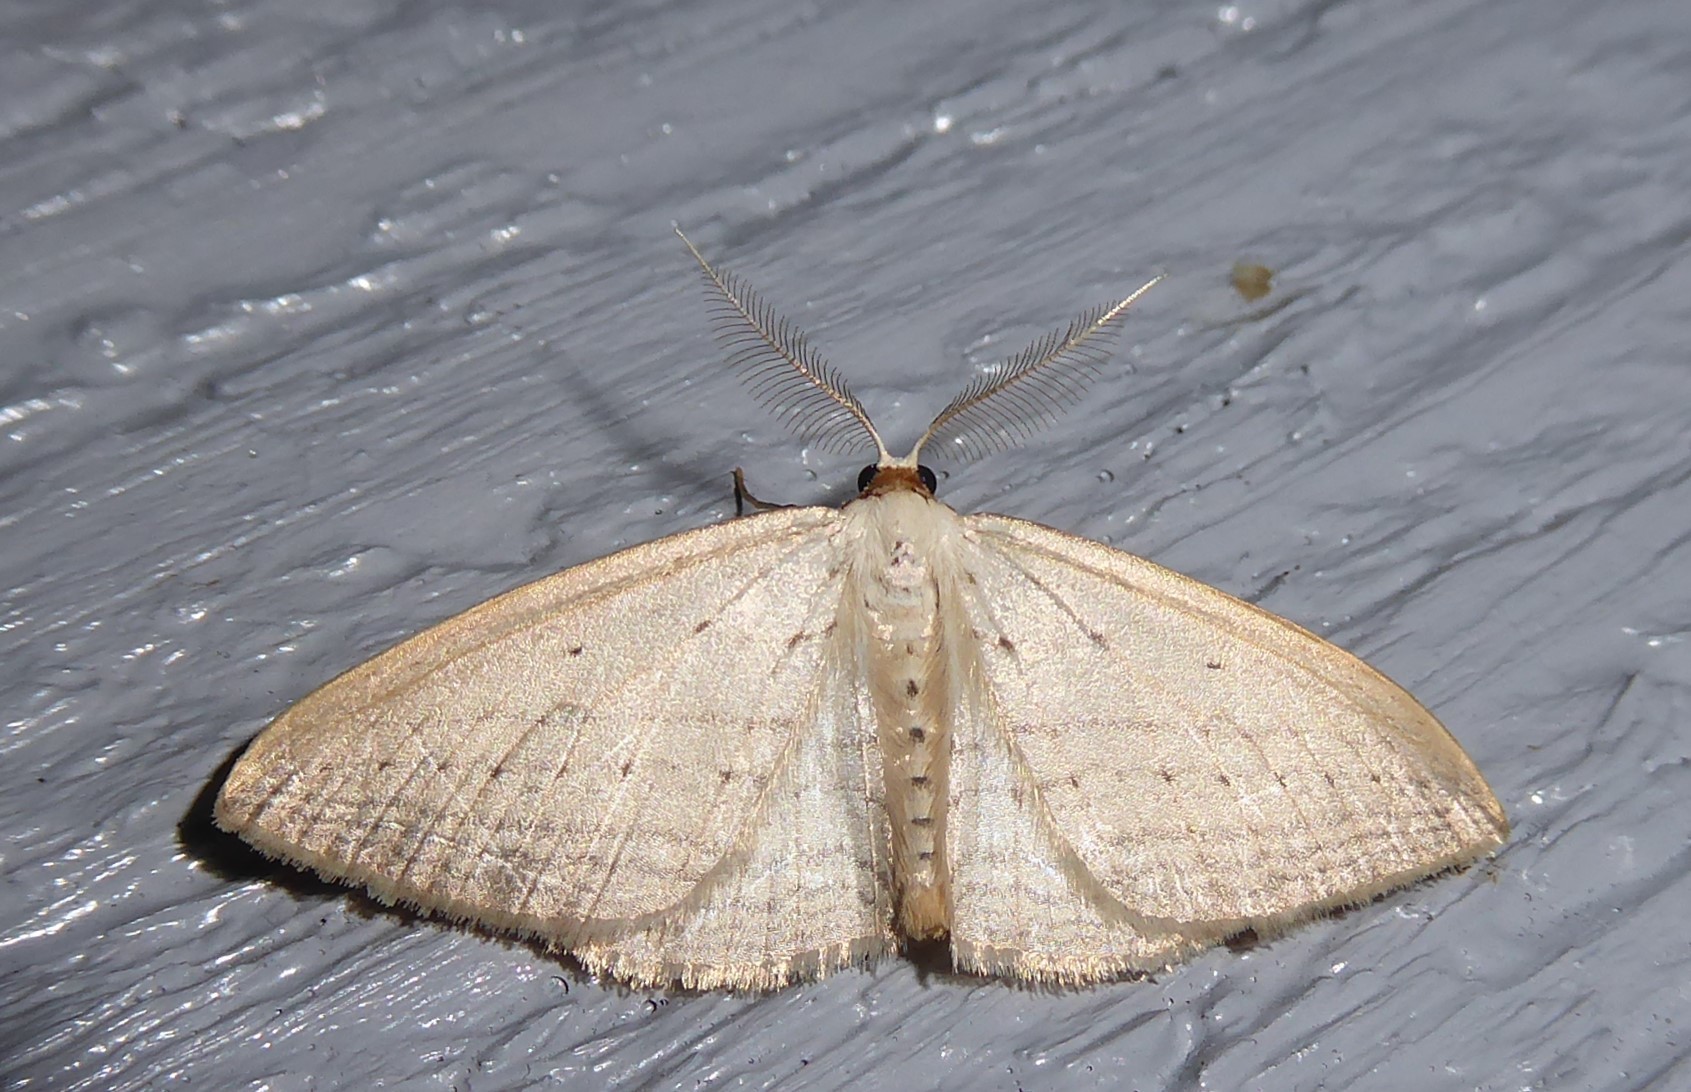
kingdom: Animalia
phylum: Arthropoda
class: Insecta
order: Lepidoptera
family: Geometridae
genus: Orthoclydon
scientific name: Orthoclydon praefectata
